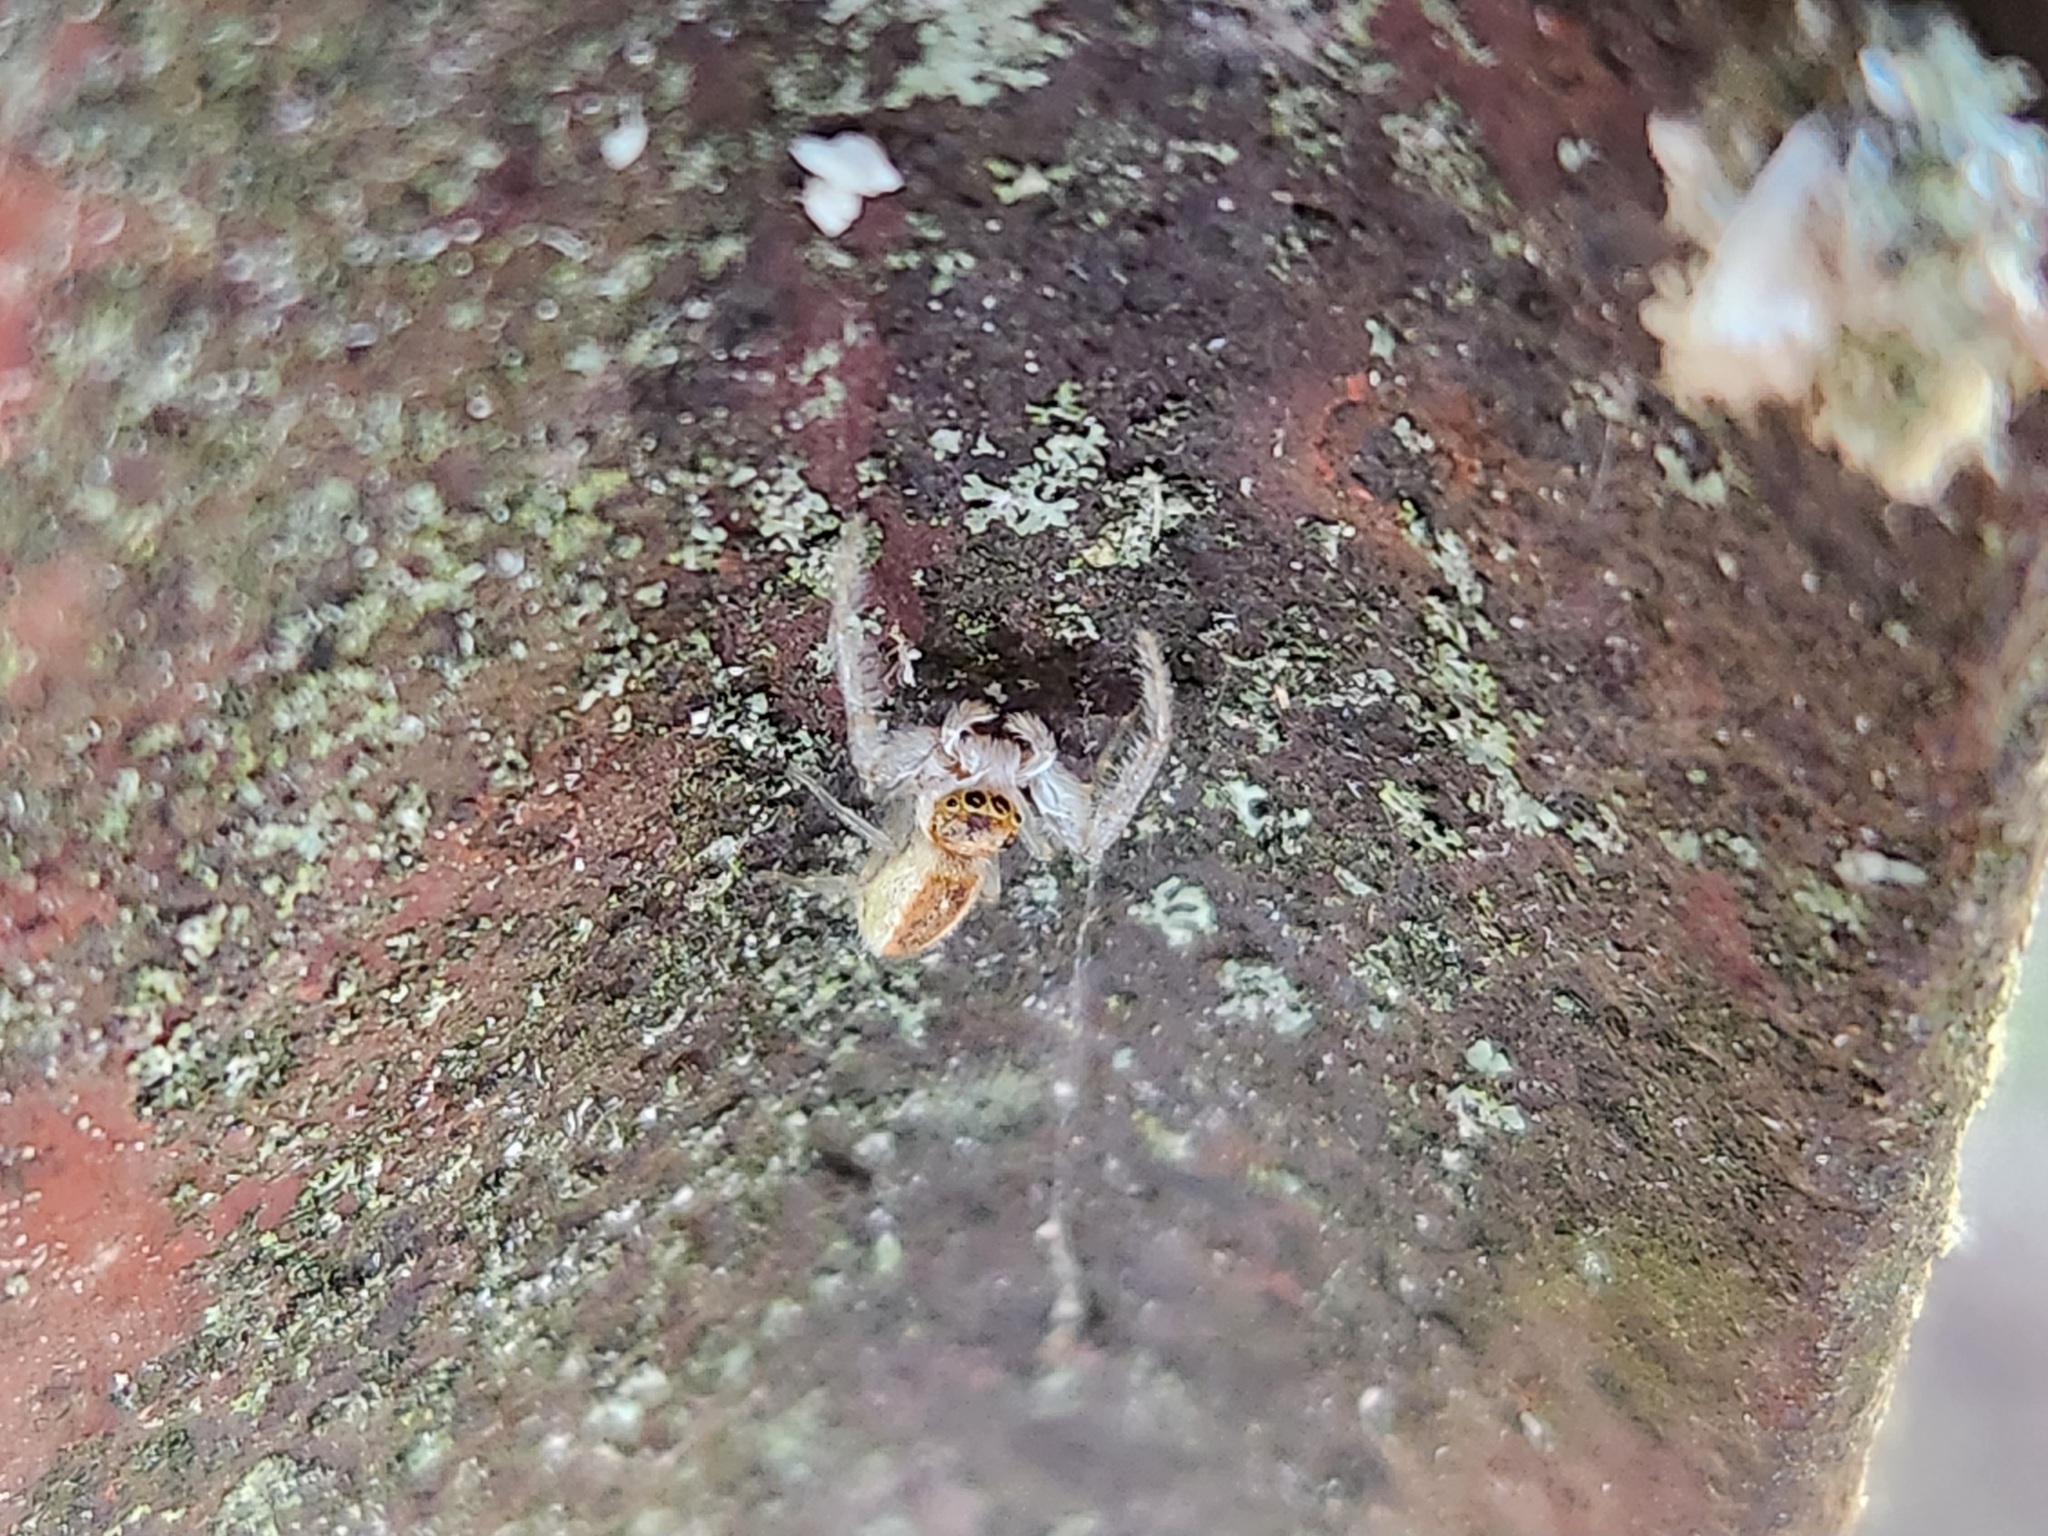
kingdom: Animalia
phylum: Arthropoda
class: Arachnida
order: Araneae
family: Salticidae
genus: Hentzia
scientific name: Hentzia mitrata
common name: White-jawed jumping spider
